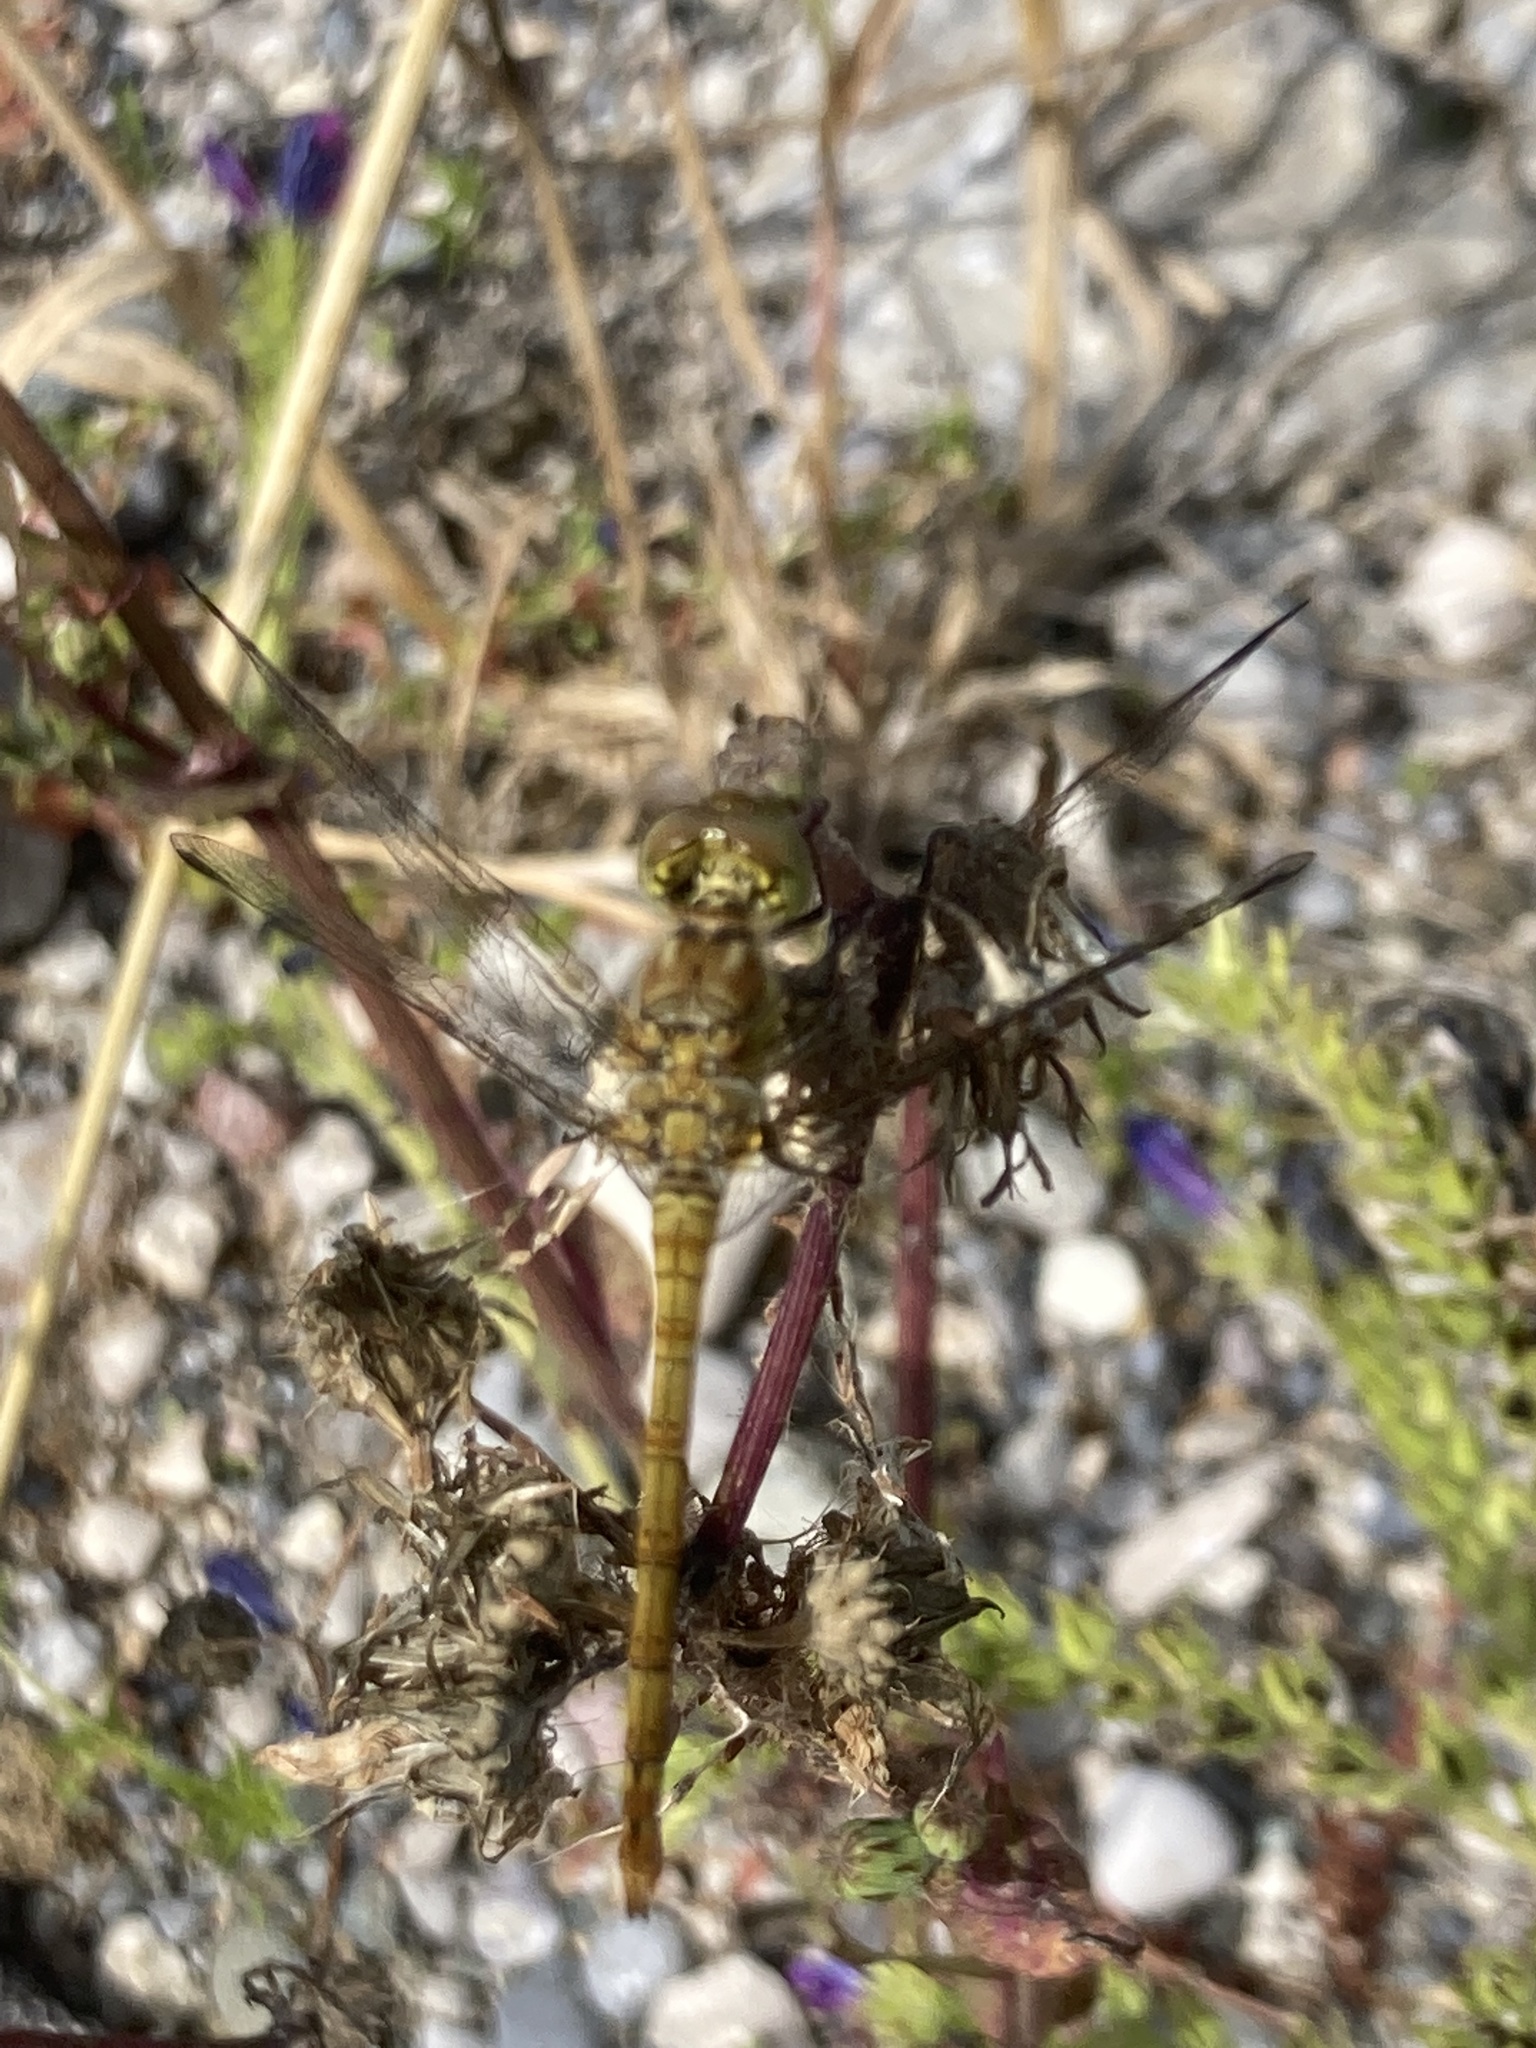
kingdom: Animalia
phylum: Arthropoda
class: Insecta
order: Odonata
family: Libellulidae
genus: Sympetrum
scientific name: Sympetrum striolatum
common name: Common darter
